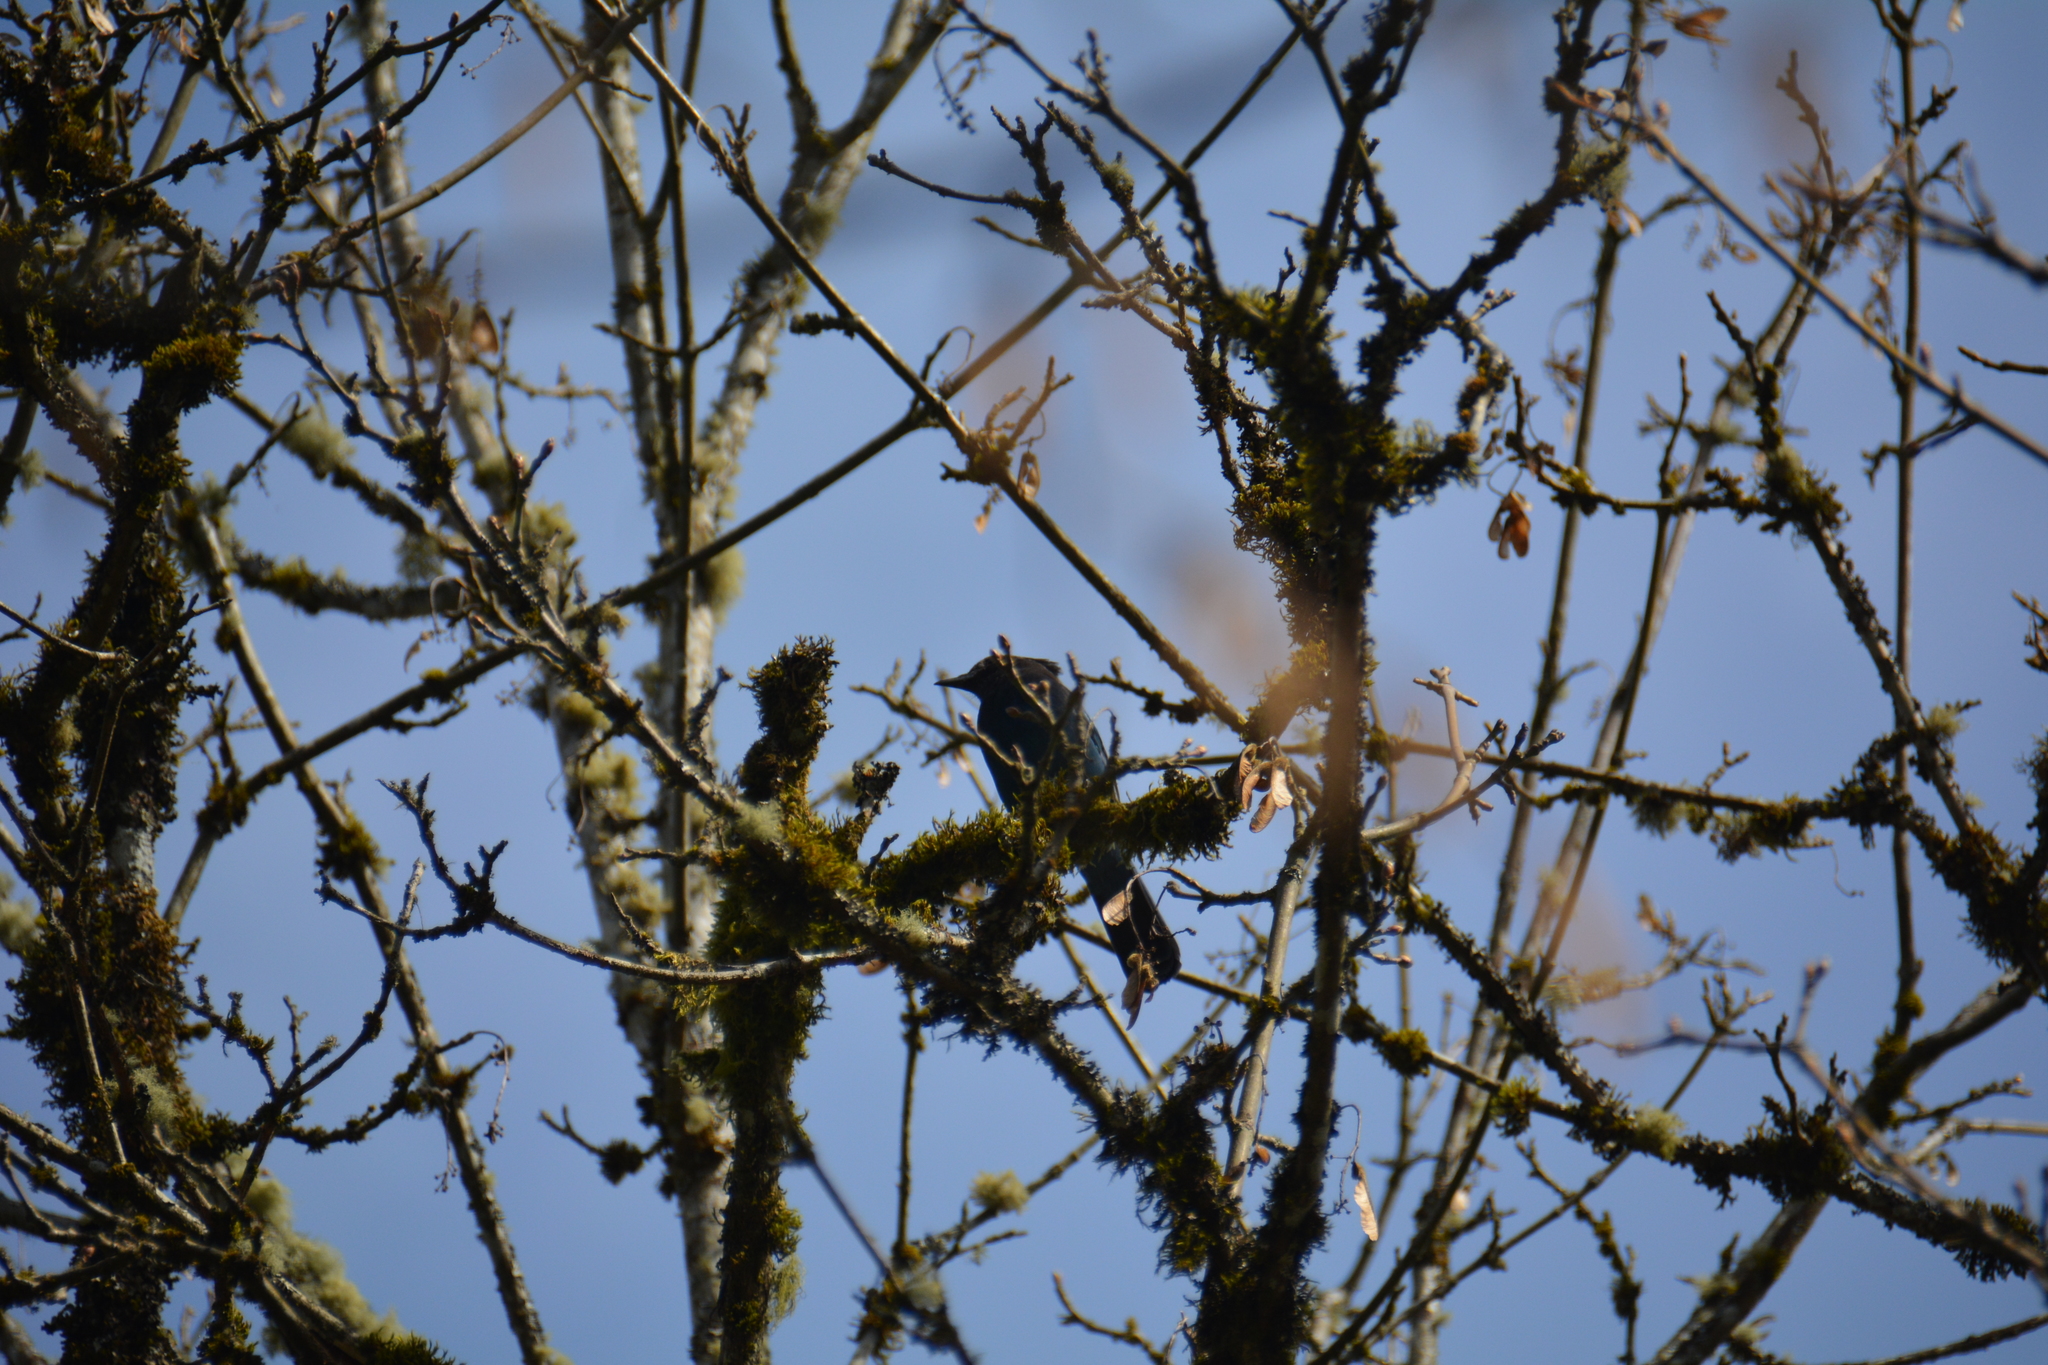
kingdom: Animalia
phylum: Chordata
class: Aves
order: Passeriformes
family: Corvidae
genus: Cyanocitta
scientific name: Cyanocitta stelleri
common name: Steller's jay
